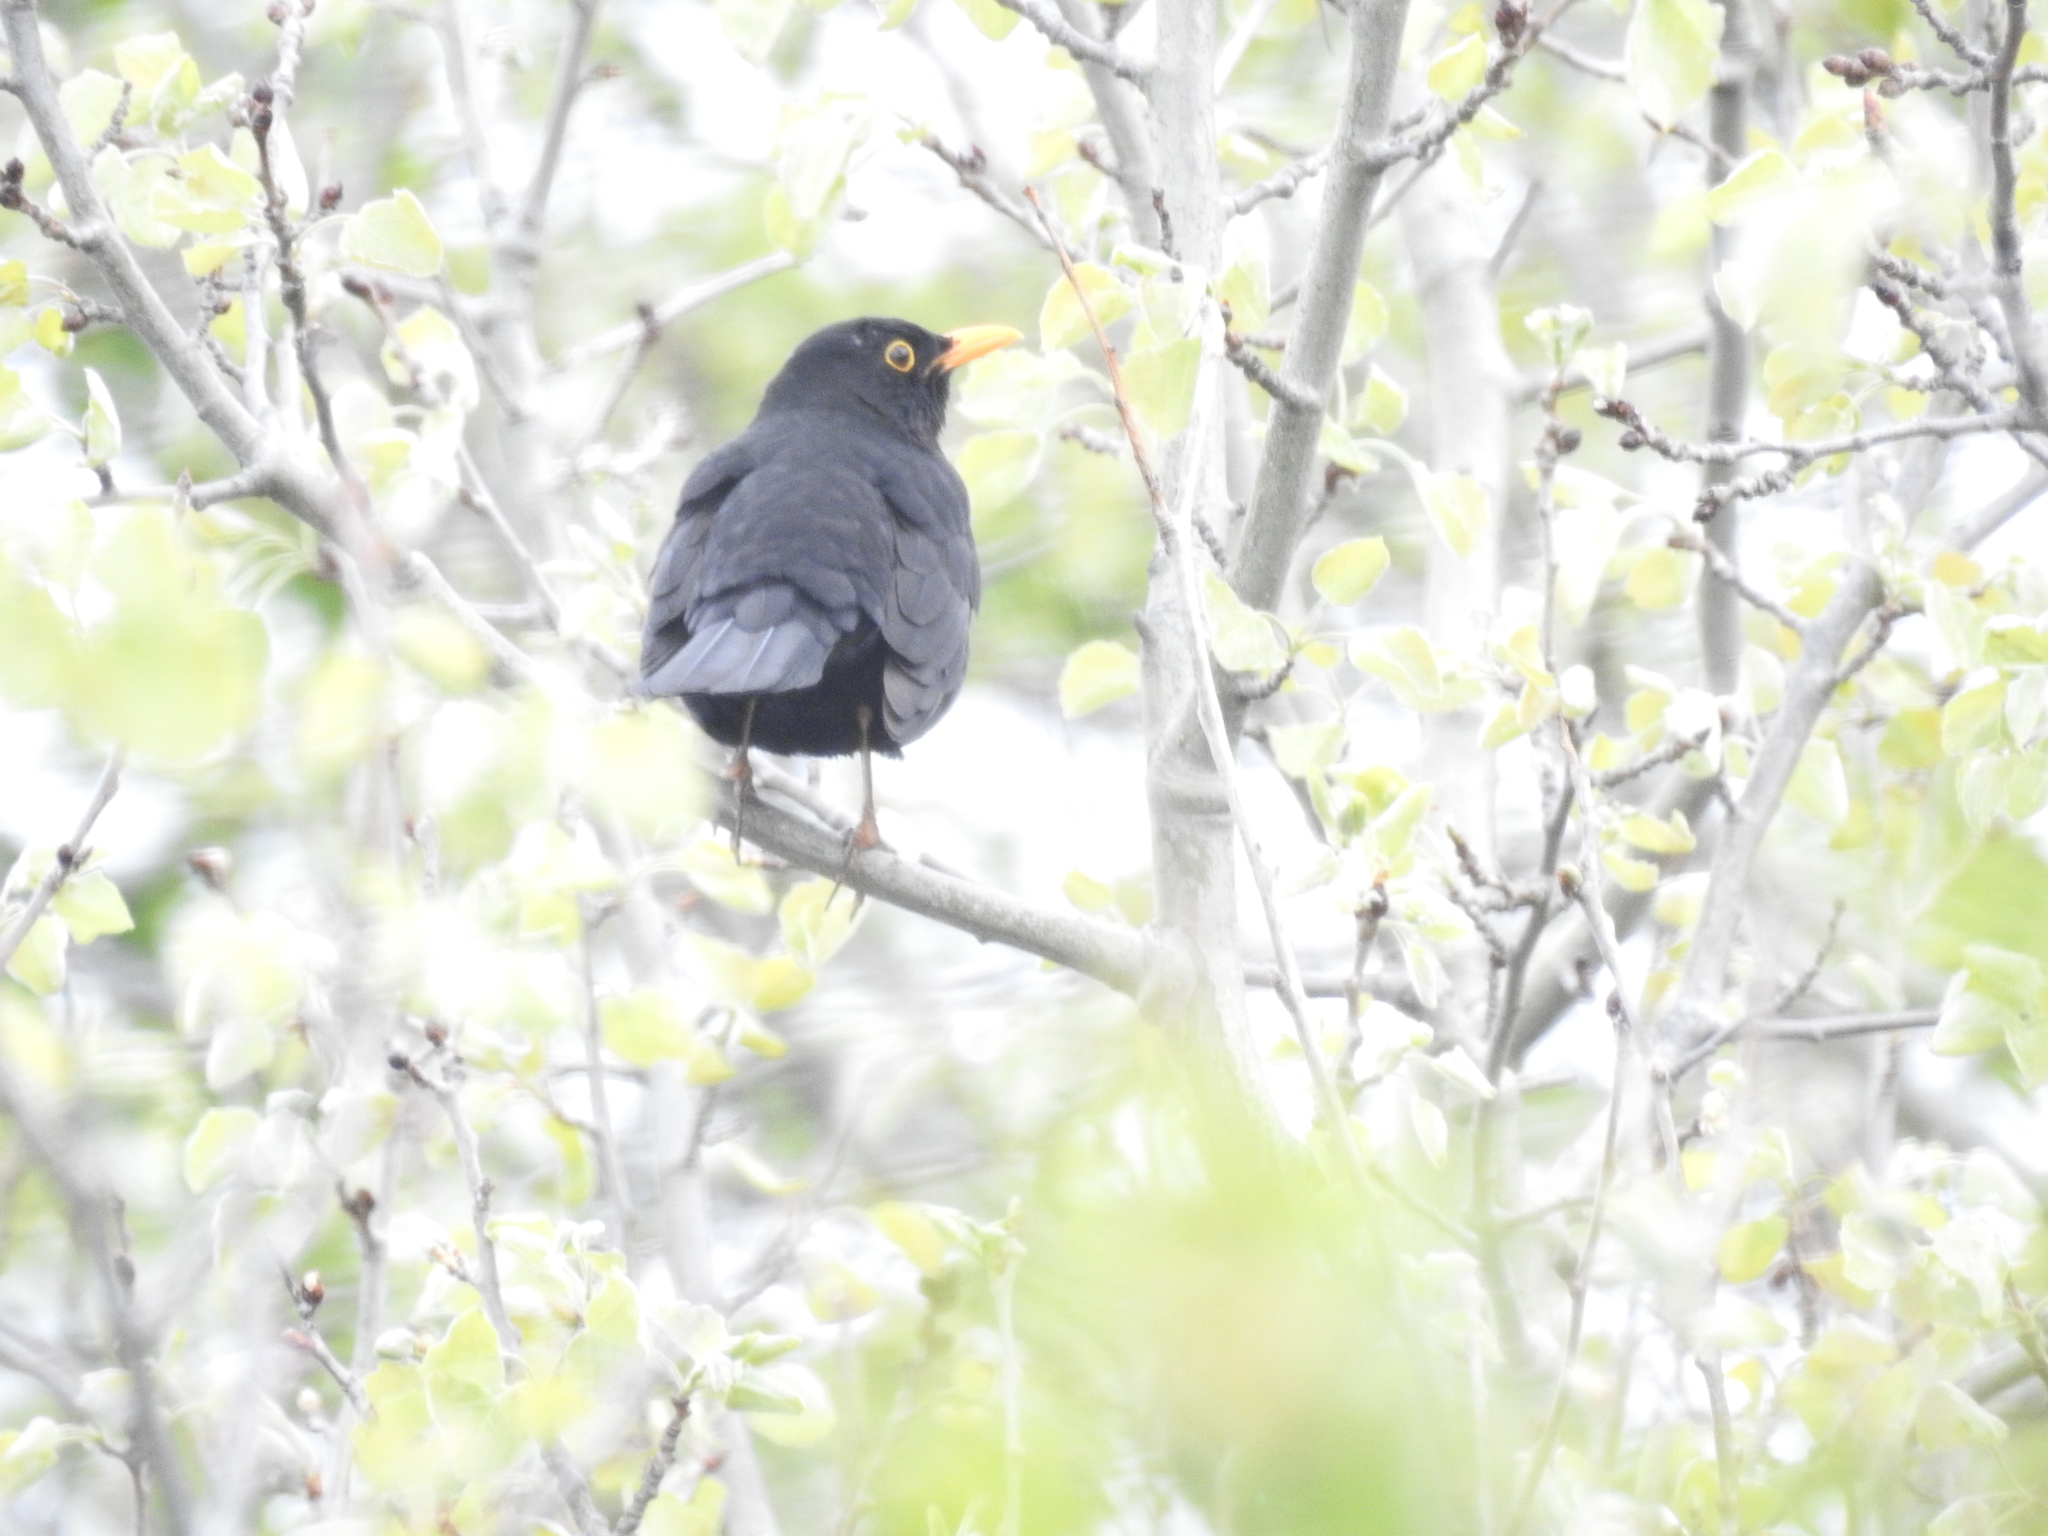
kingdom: Animalia
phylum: Chordata
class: Aves
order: Passeriformes
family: Turdidae
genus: Turdus
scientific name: Turdus merula
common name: Common blackbird
